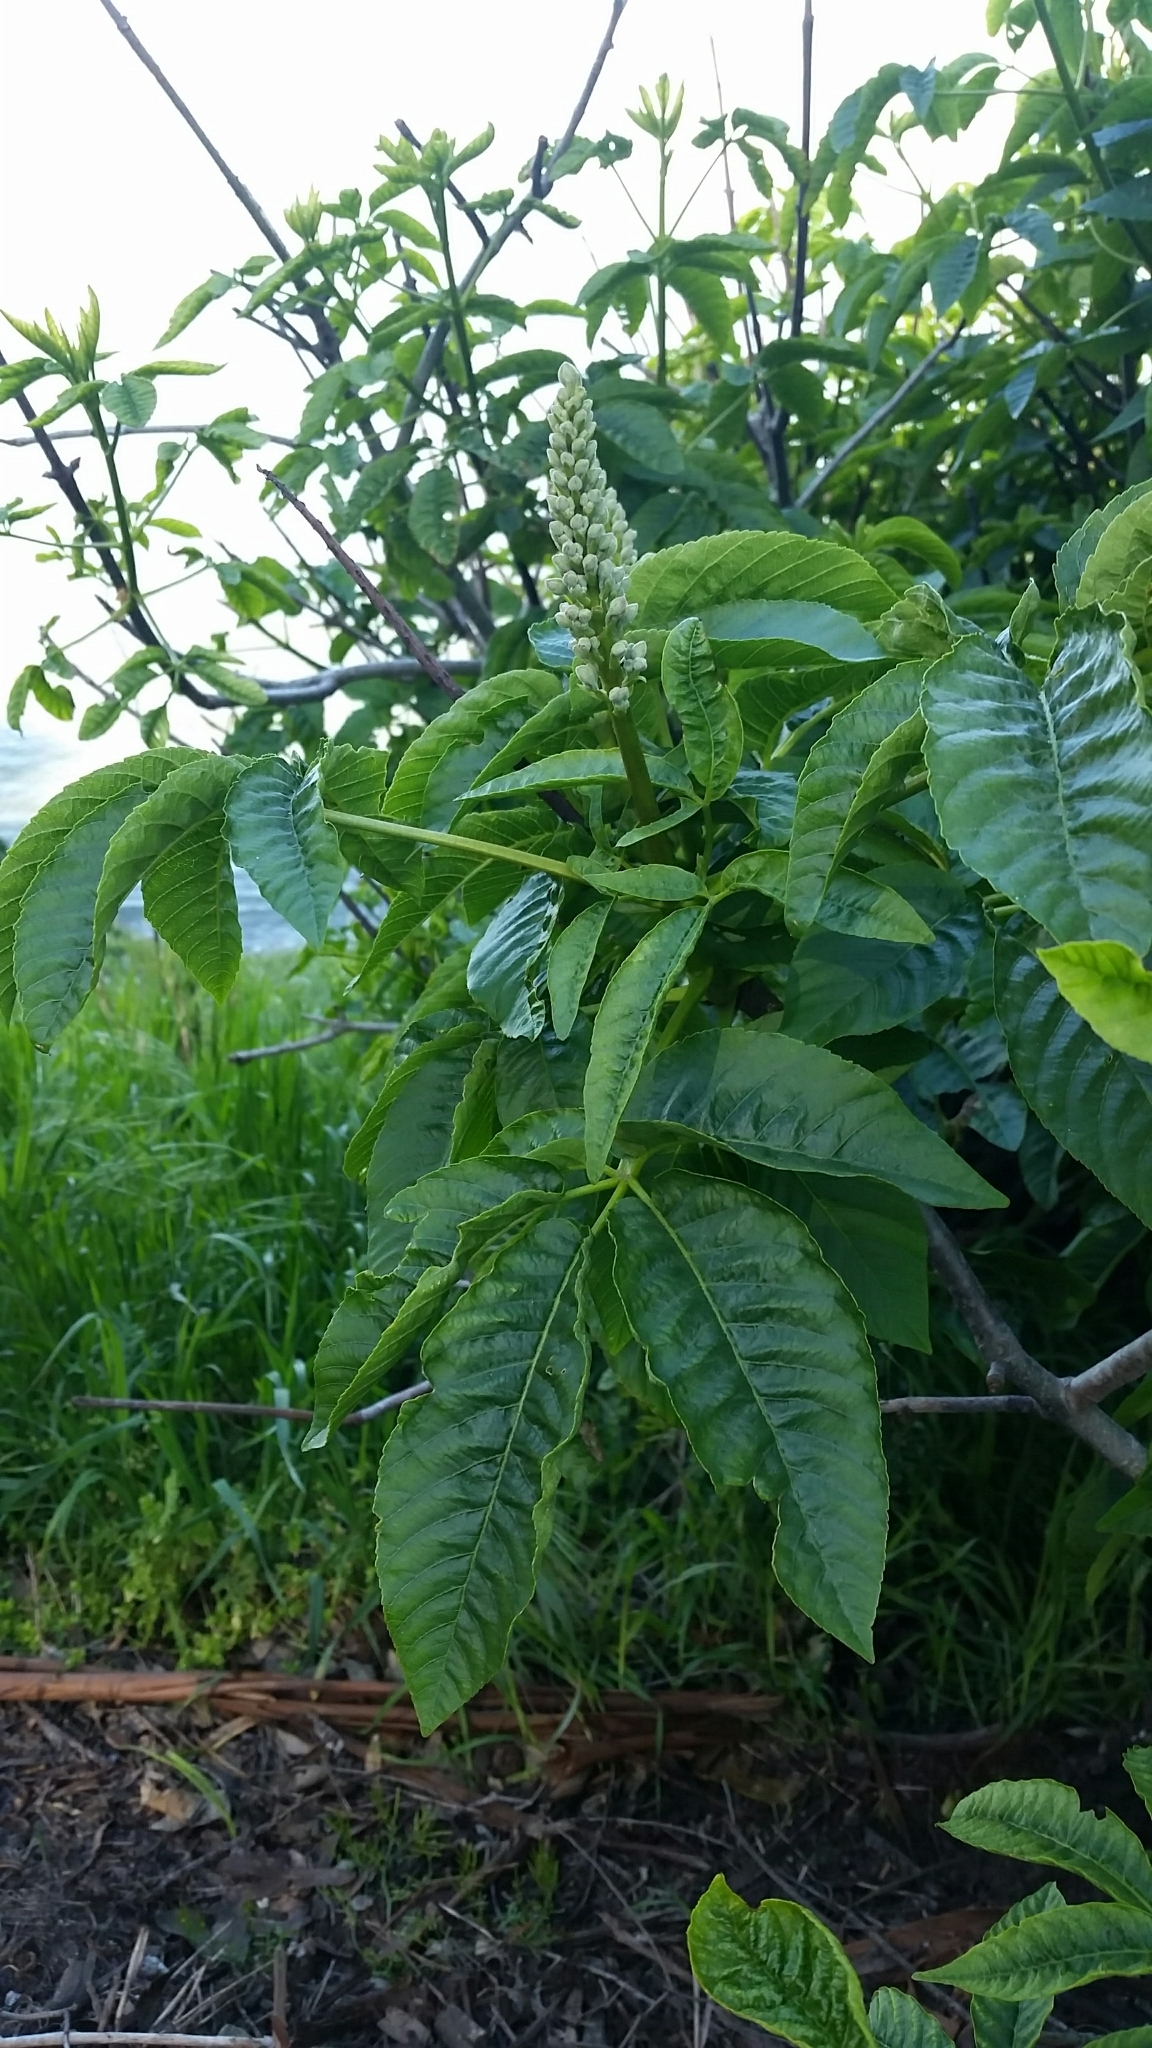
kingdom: Plantae
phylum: Tracheophyta
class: Magnoliopsida
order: Sapindales
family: Sapindaceae
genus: Aesculus
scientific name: Aesculus californica
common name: California buckeye
